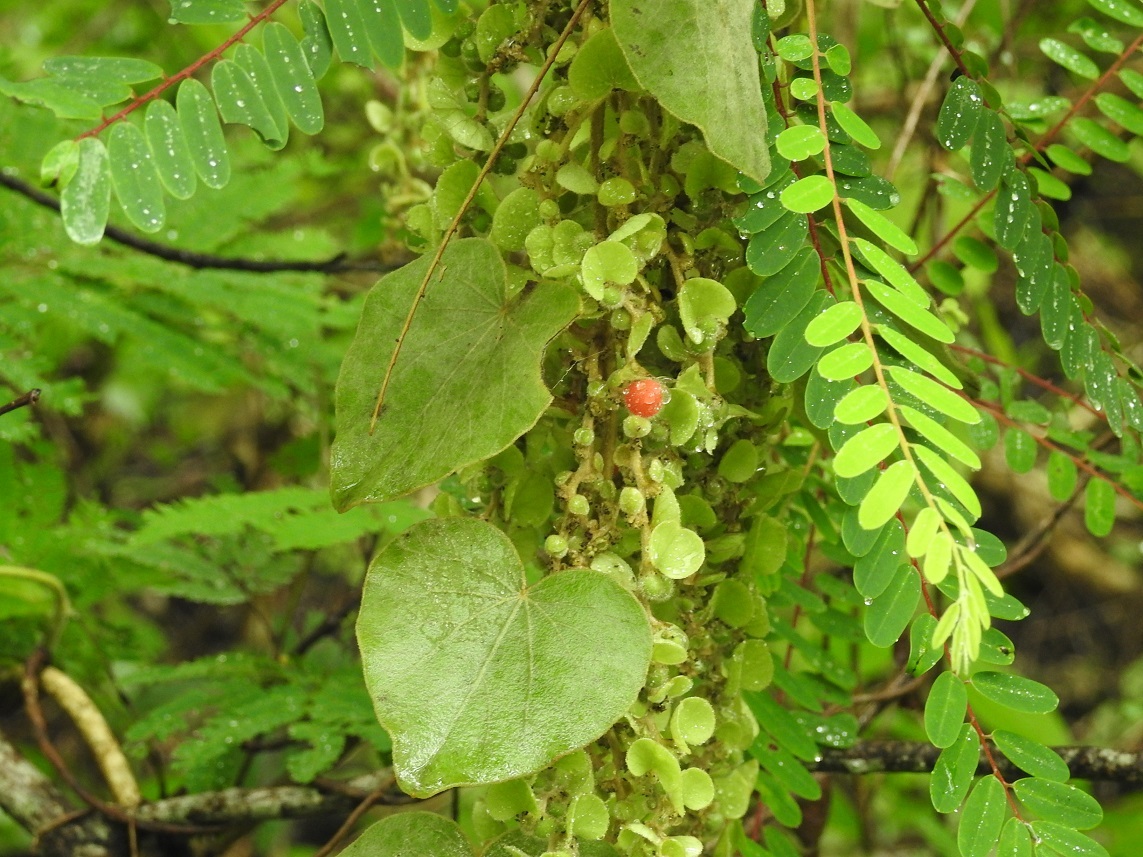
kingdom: Plantae
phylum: Tracheophyta
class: Magnoliopsida
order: Ranunculales
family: Menispermaceae
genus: Cissampelos
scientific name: Cissampelos pareira
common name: Velvetleaf
